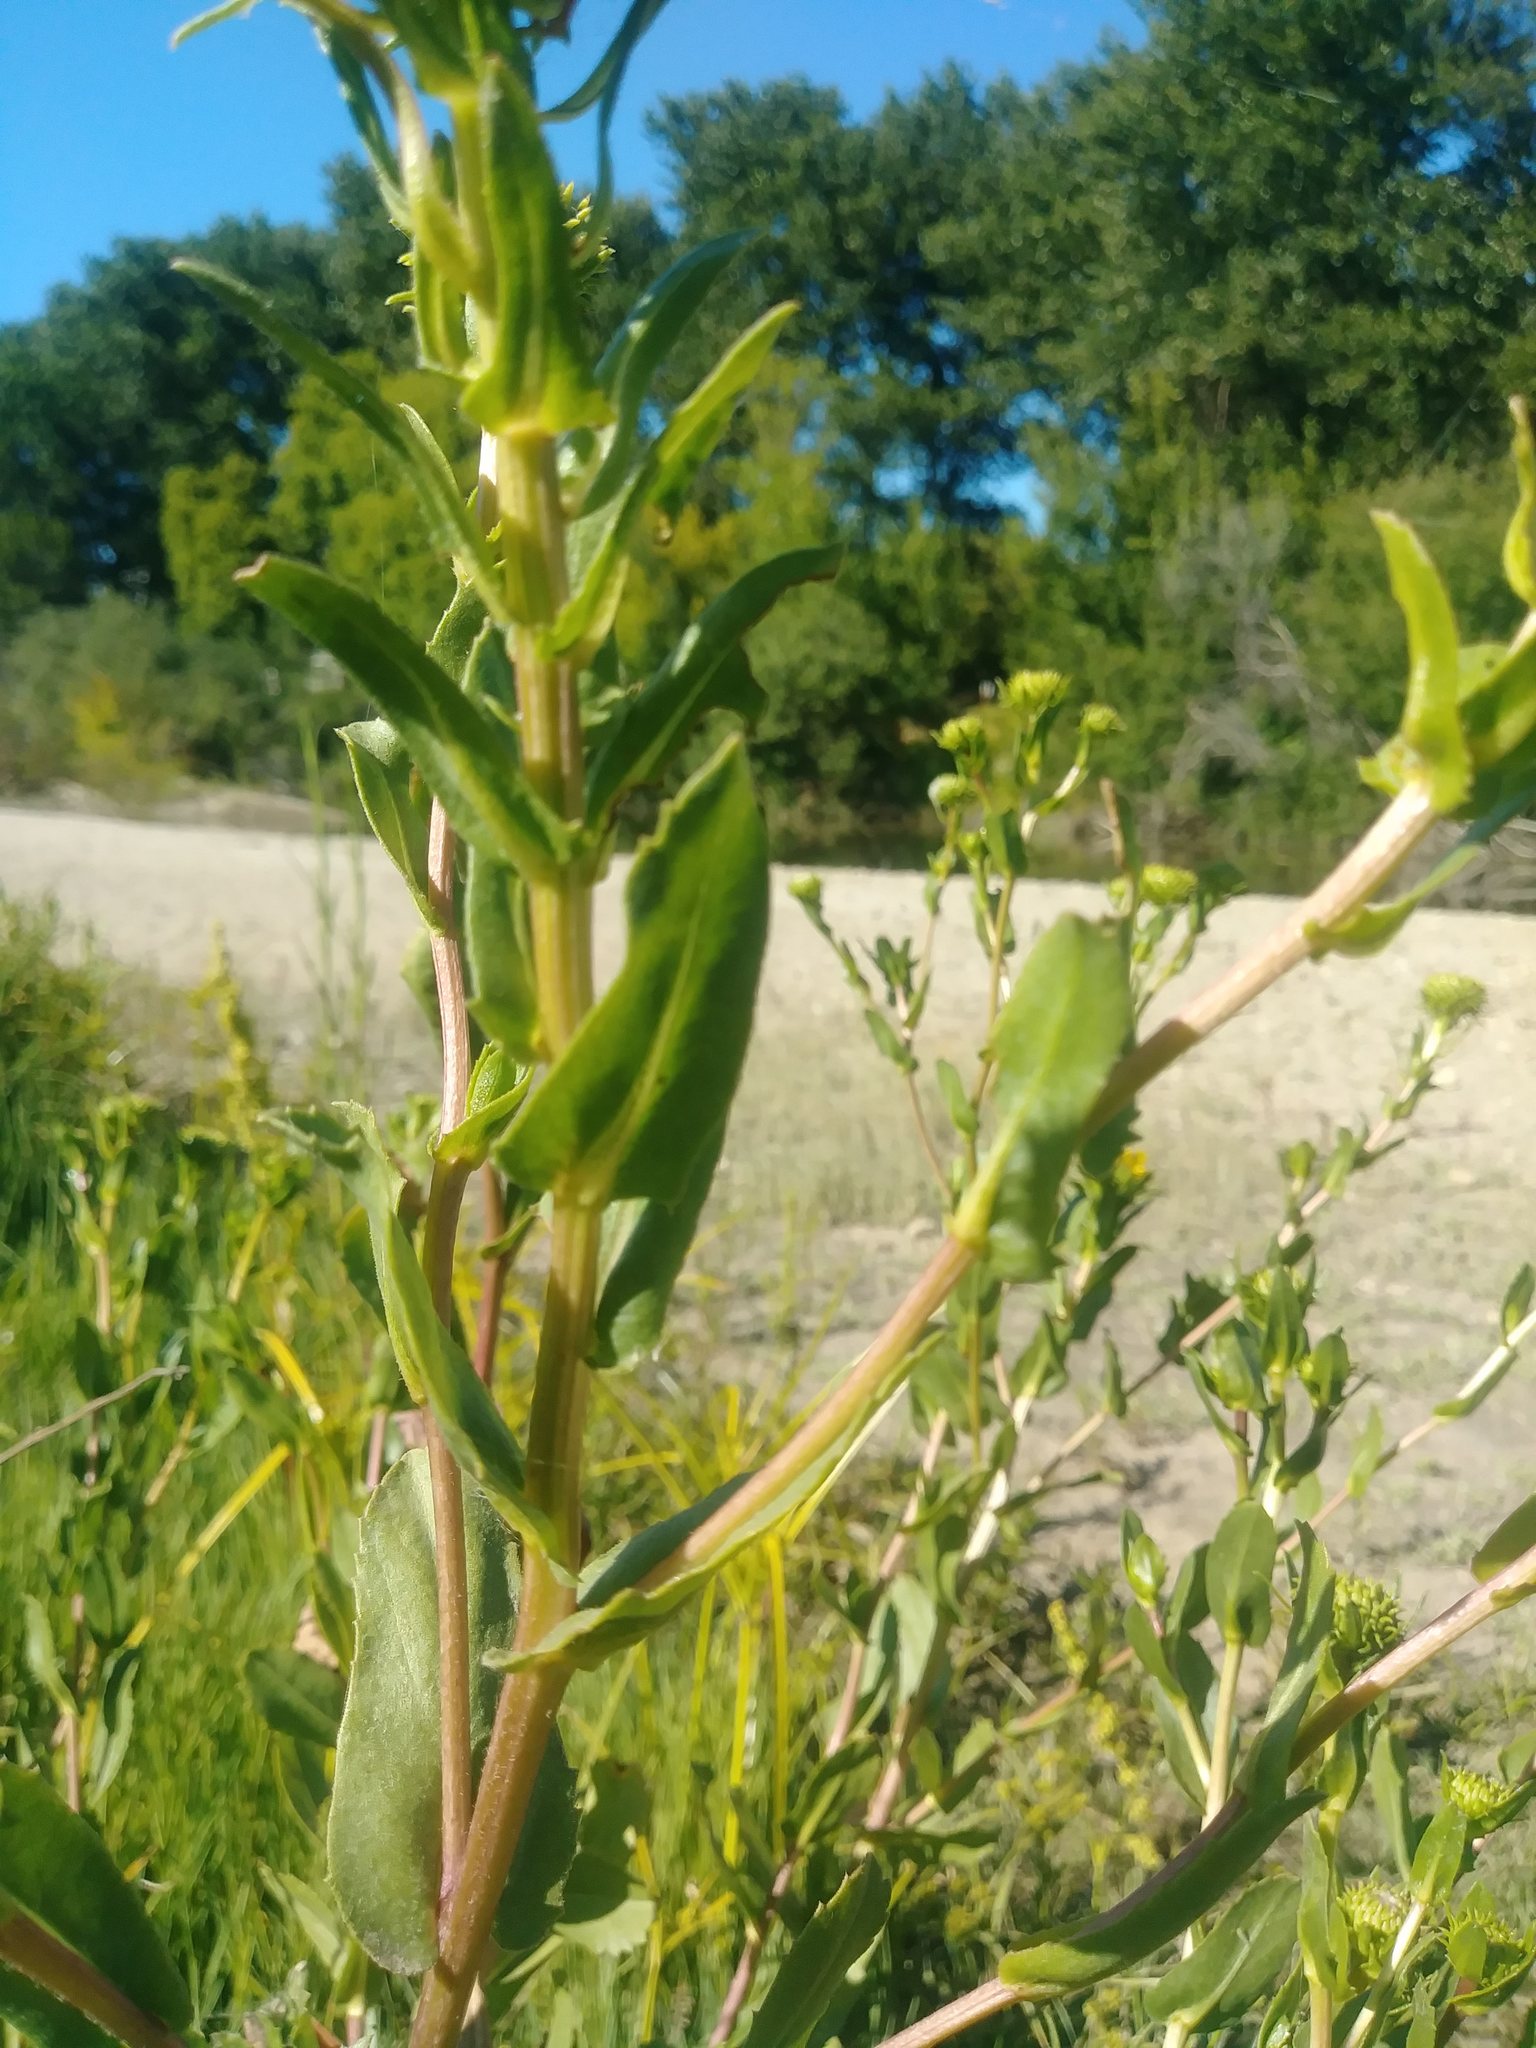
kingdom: Plantae
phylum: Tracheophyta
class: Magnoliopsida
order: Asterales
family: Asteraceae
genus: Grindelia
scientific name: Grindelia hirsutula
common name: Hairy gumweed
